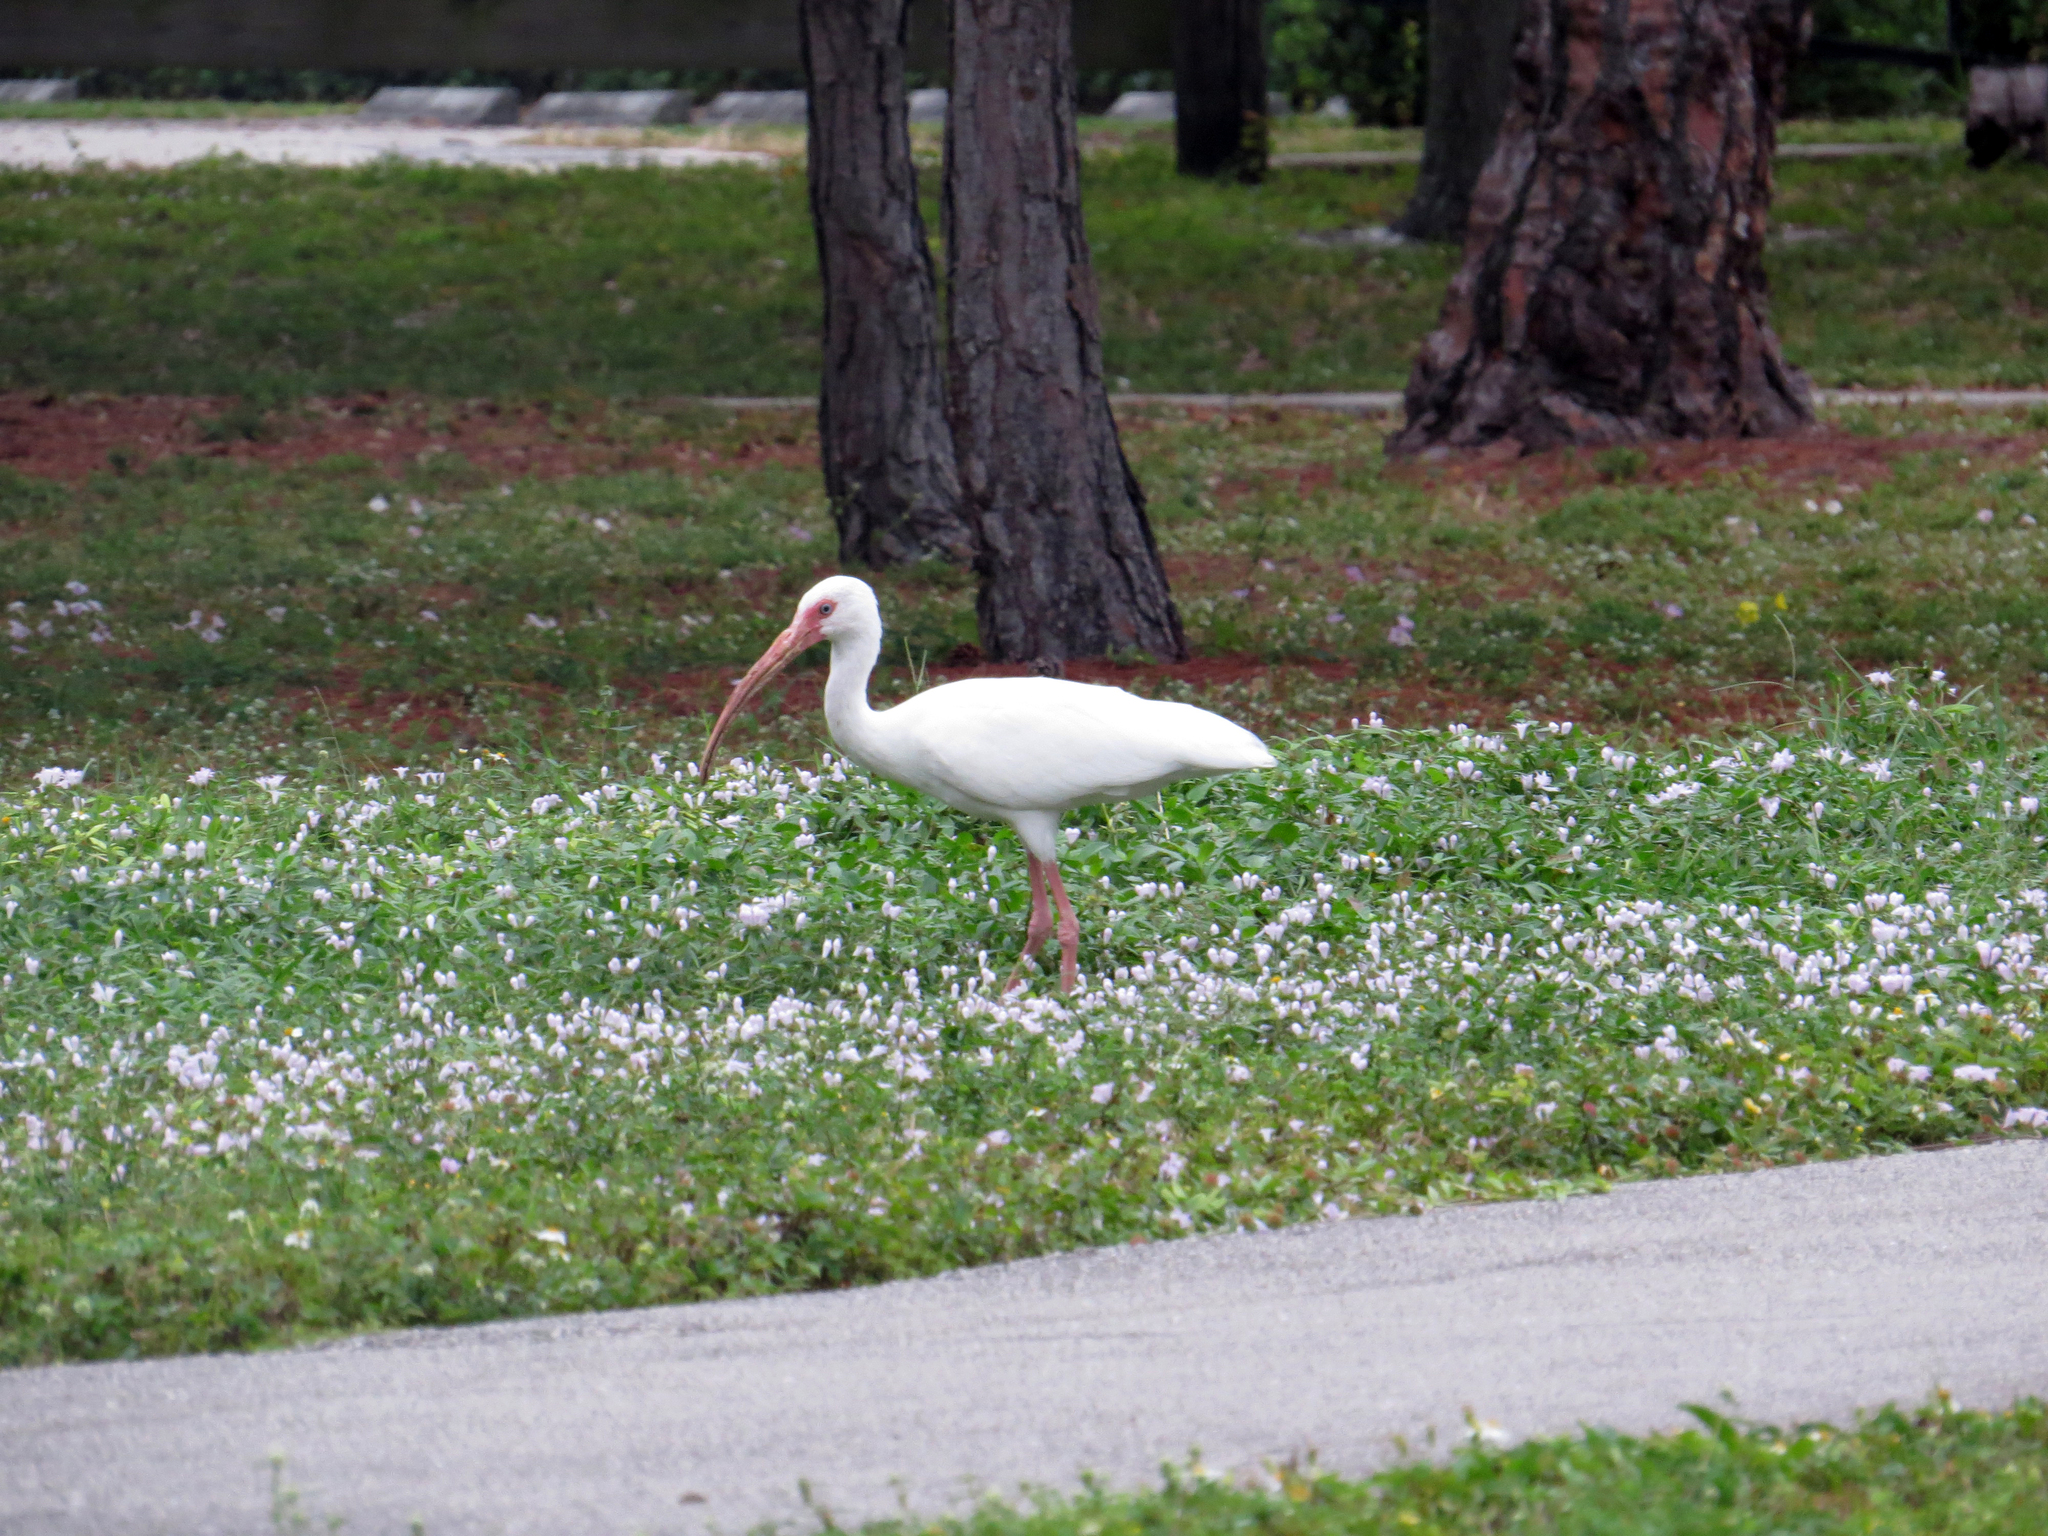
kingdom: Animalia
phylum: Chordata
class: Aves
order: Pelecaniformes
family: Threskiornithidae
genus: Eudocimus
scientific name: Eudocimus albus
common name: White ibis
